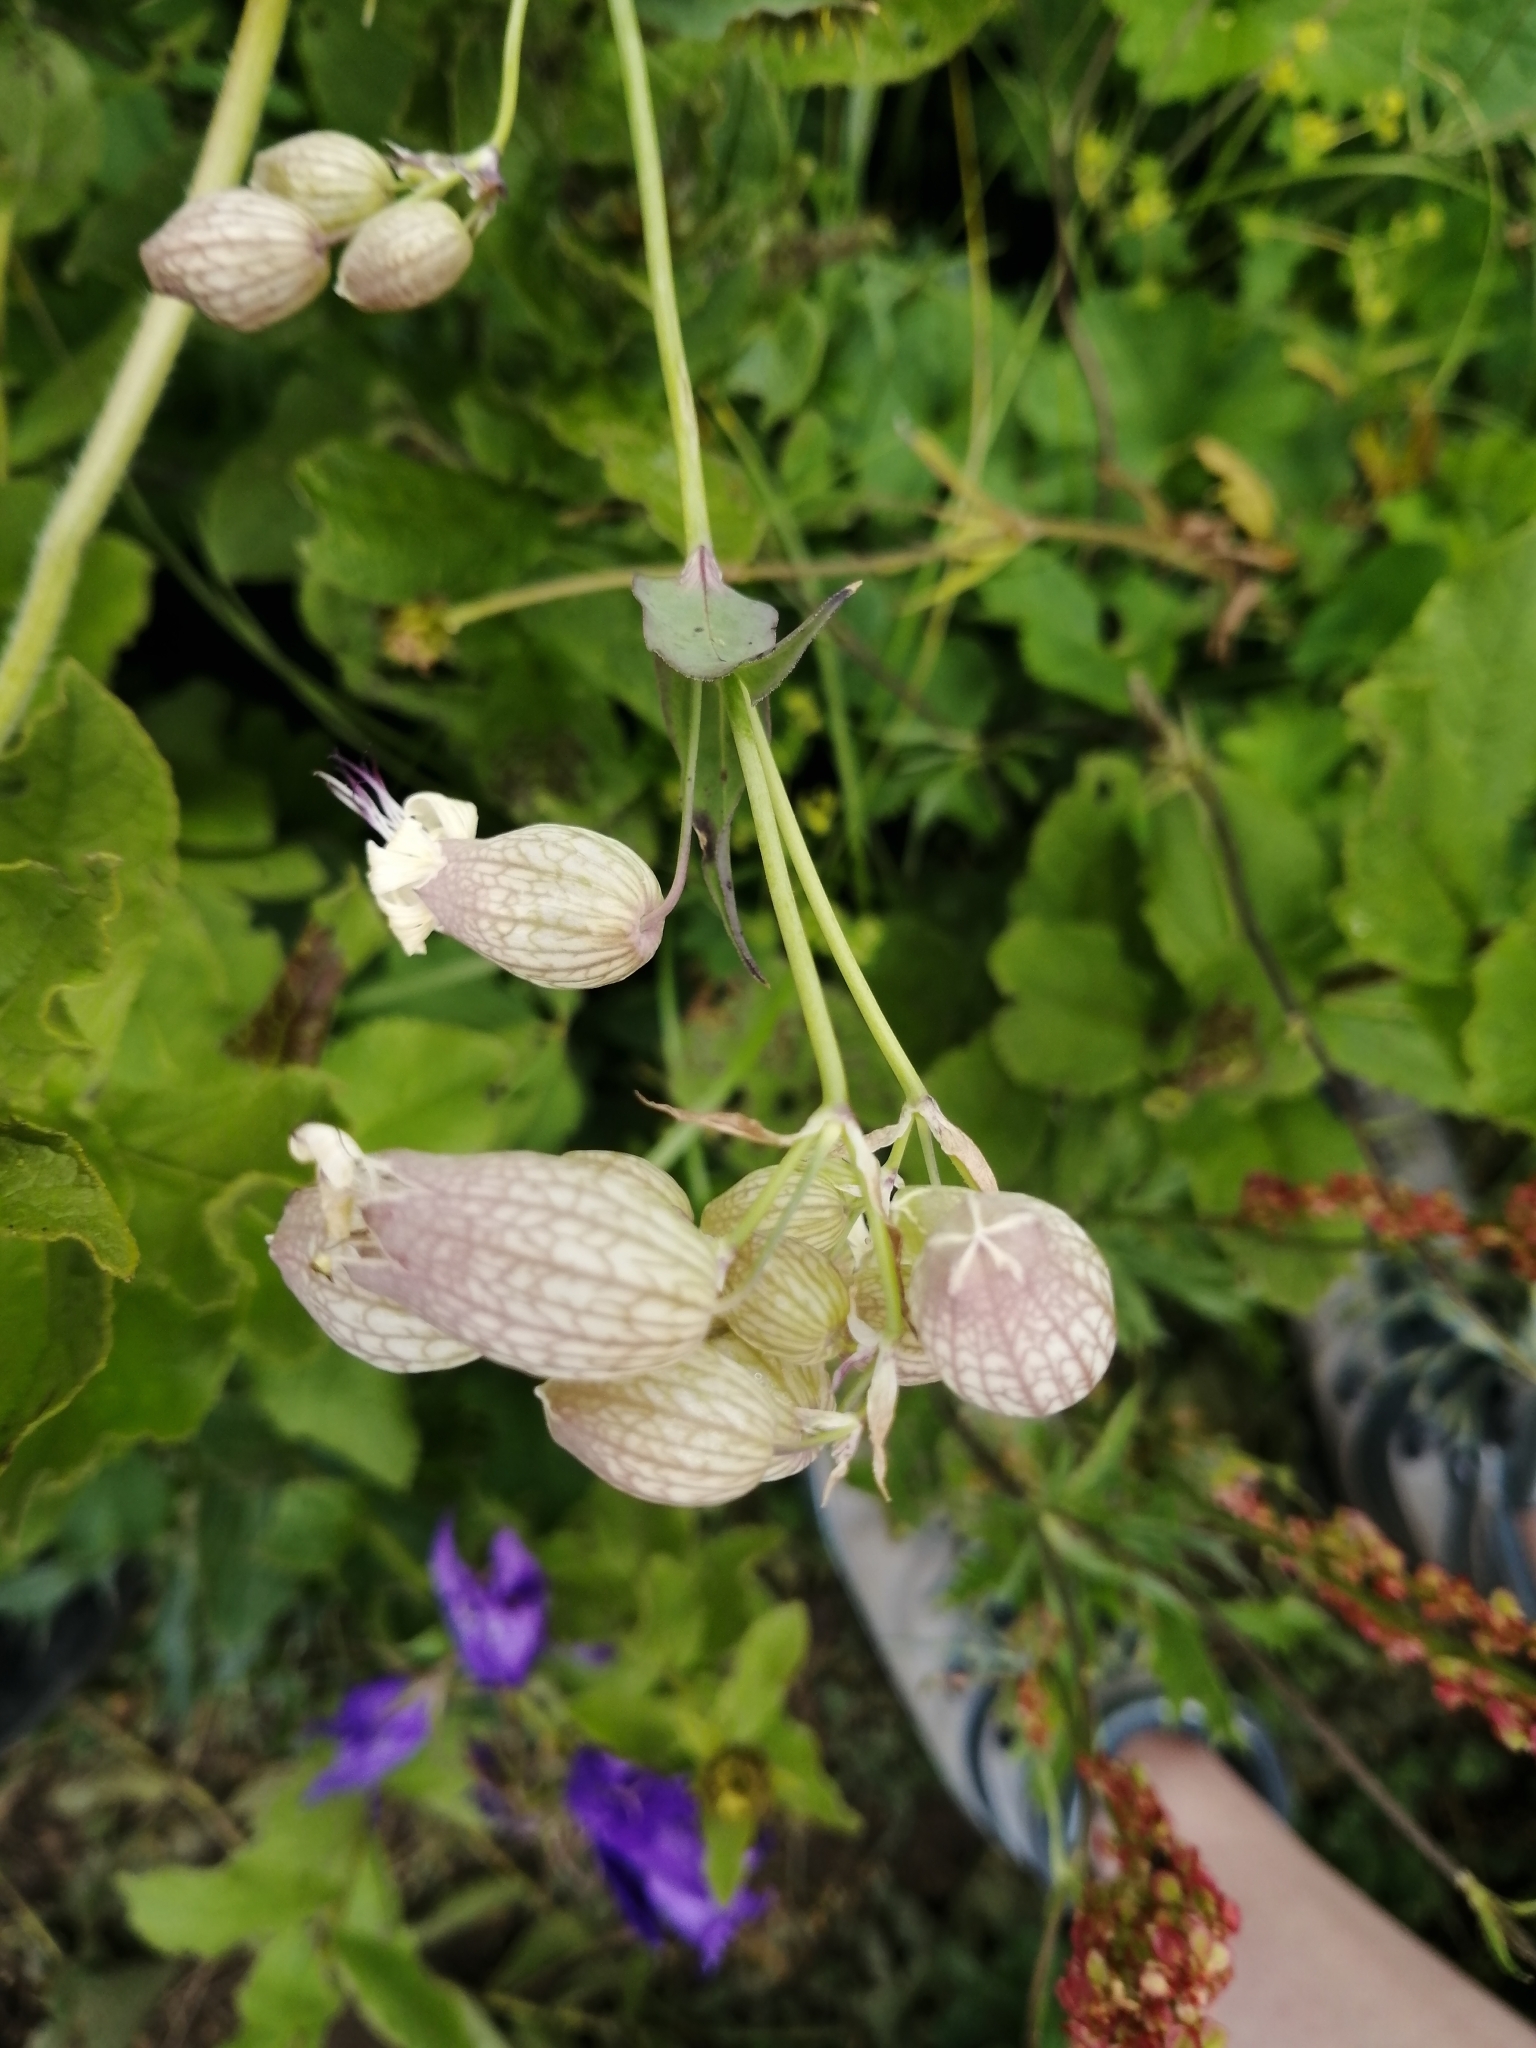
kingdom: Plantae
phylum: Tracheophyta
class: Magnoliopsida
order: Caryophyllales
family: Caryophyllaceae
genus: Silene
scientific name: Silene vulgaris
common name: Bladder campion
